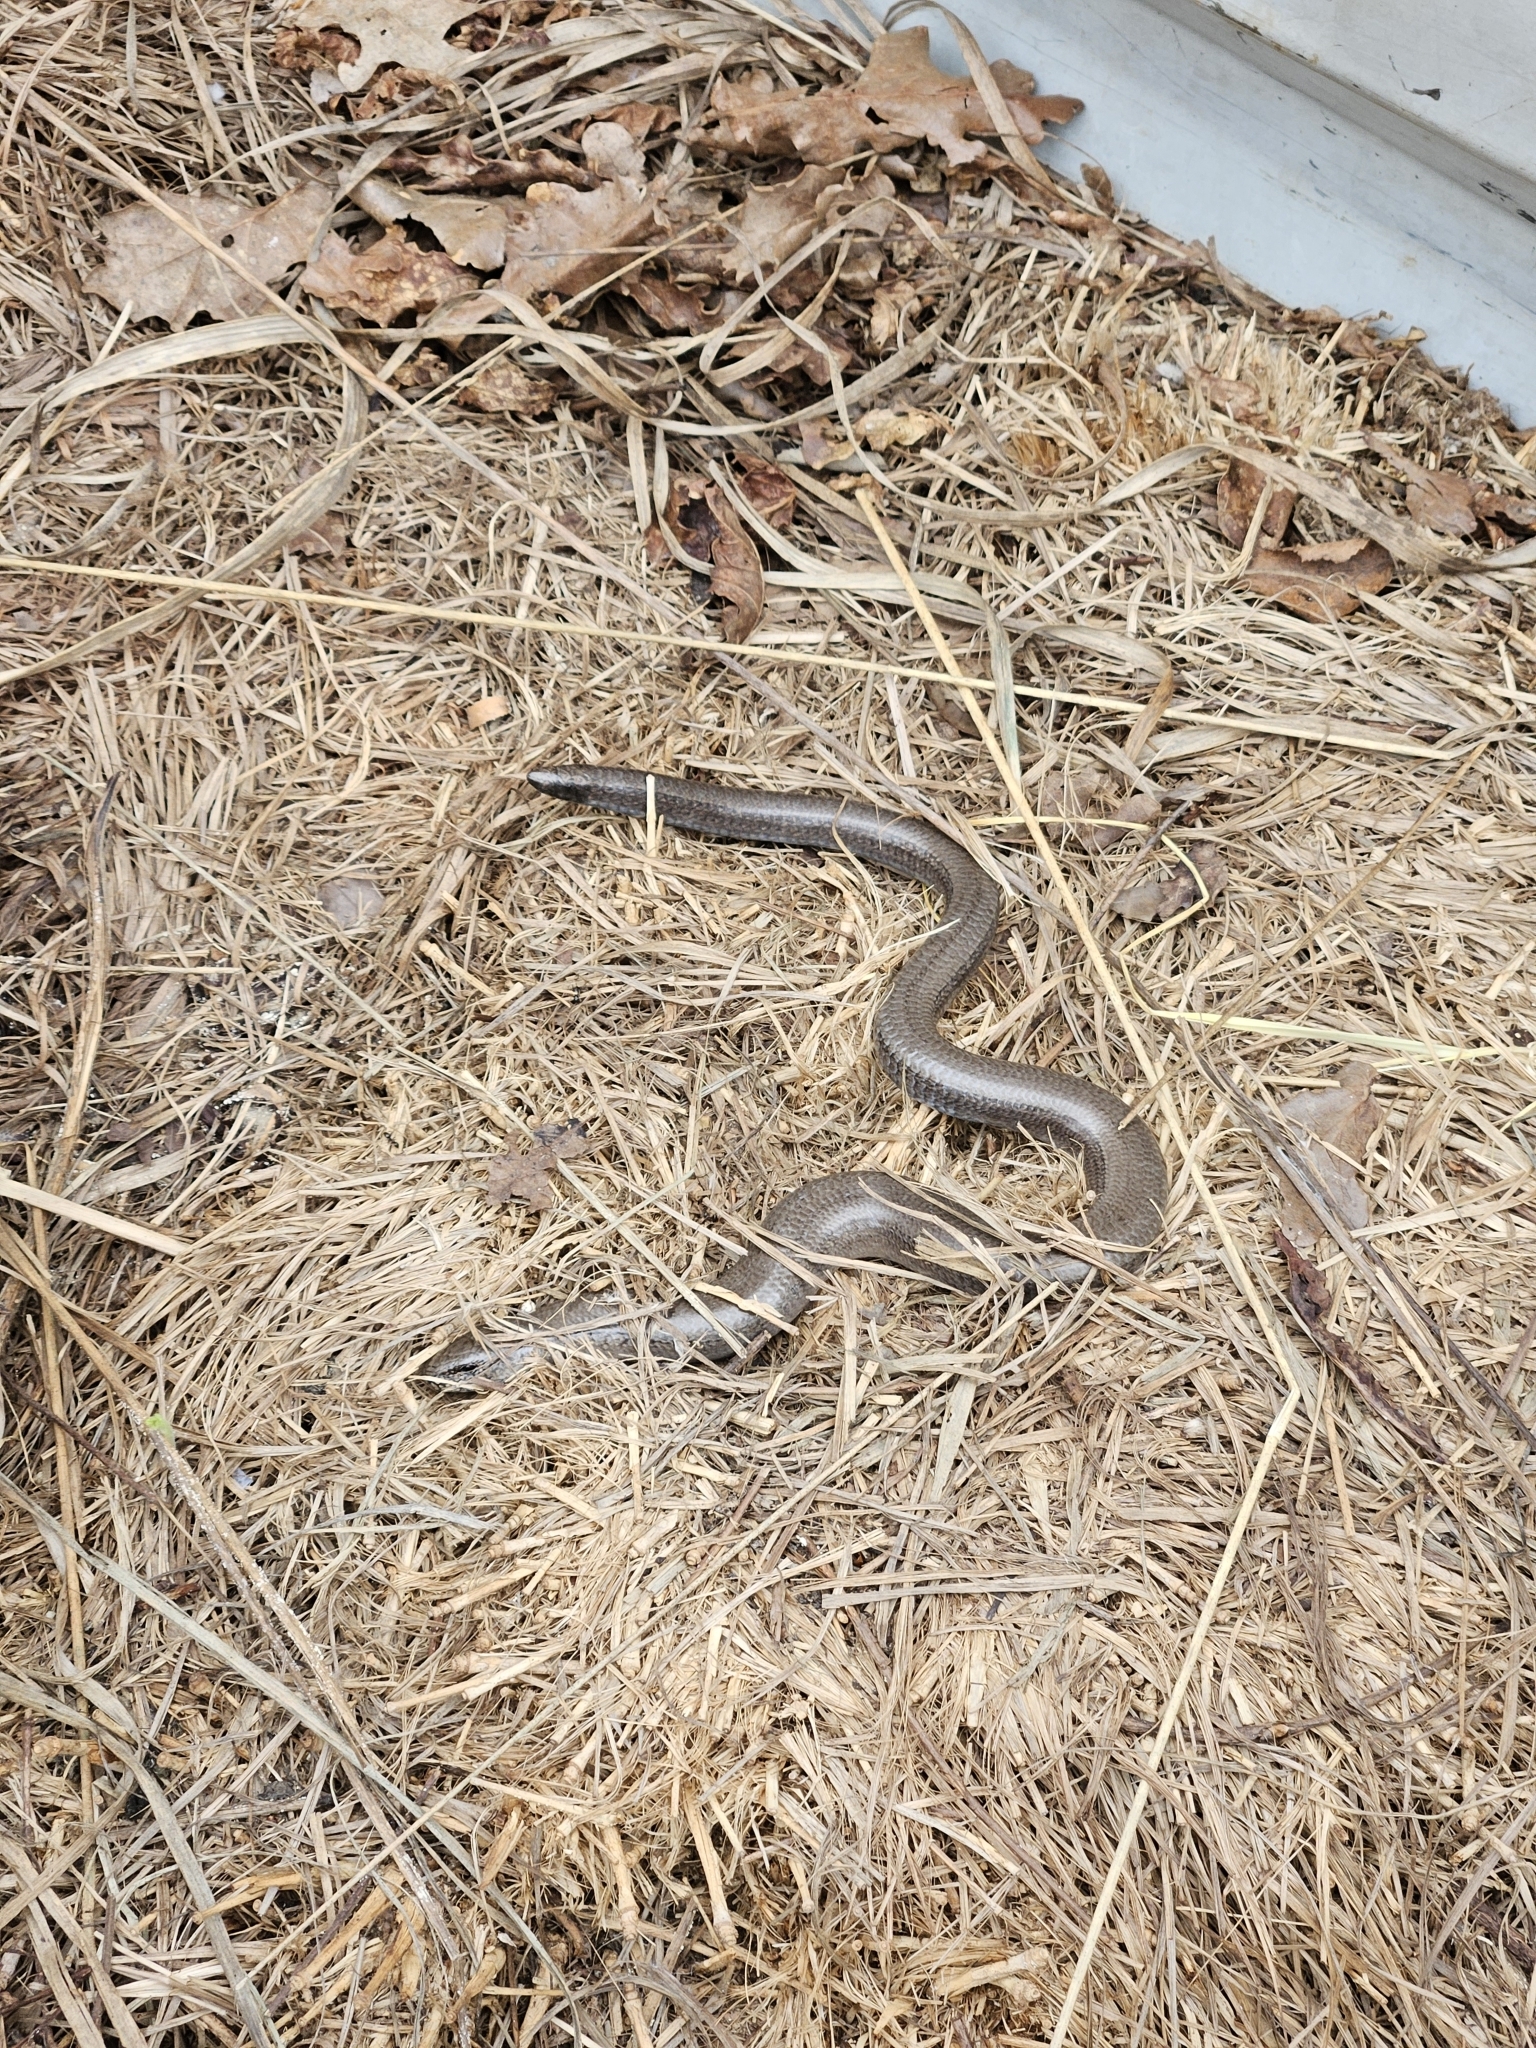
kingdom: Animalia
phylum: Chordata
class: Squamata
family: Anguidae
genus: Anguis
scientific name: Anguis fragilis
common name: Slow worm
